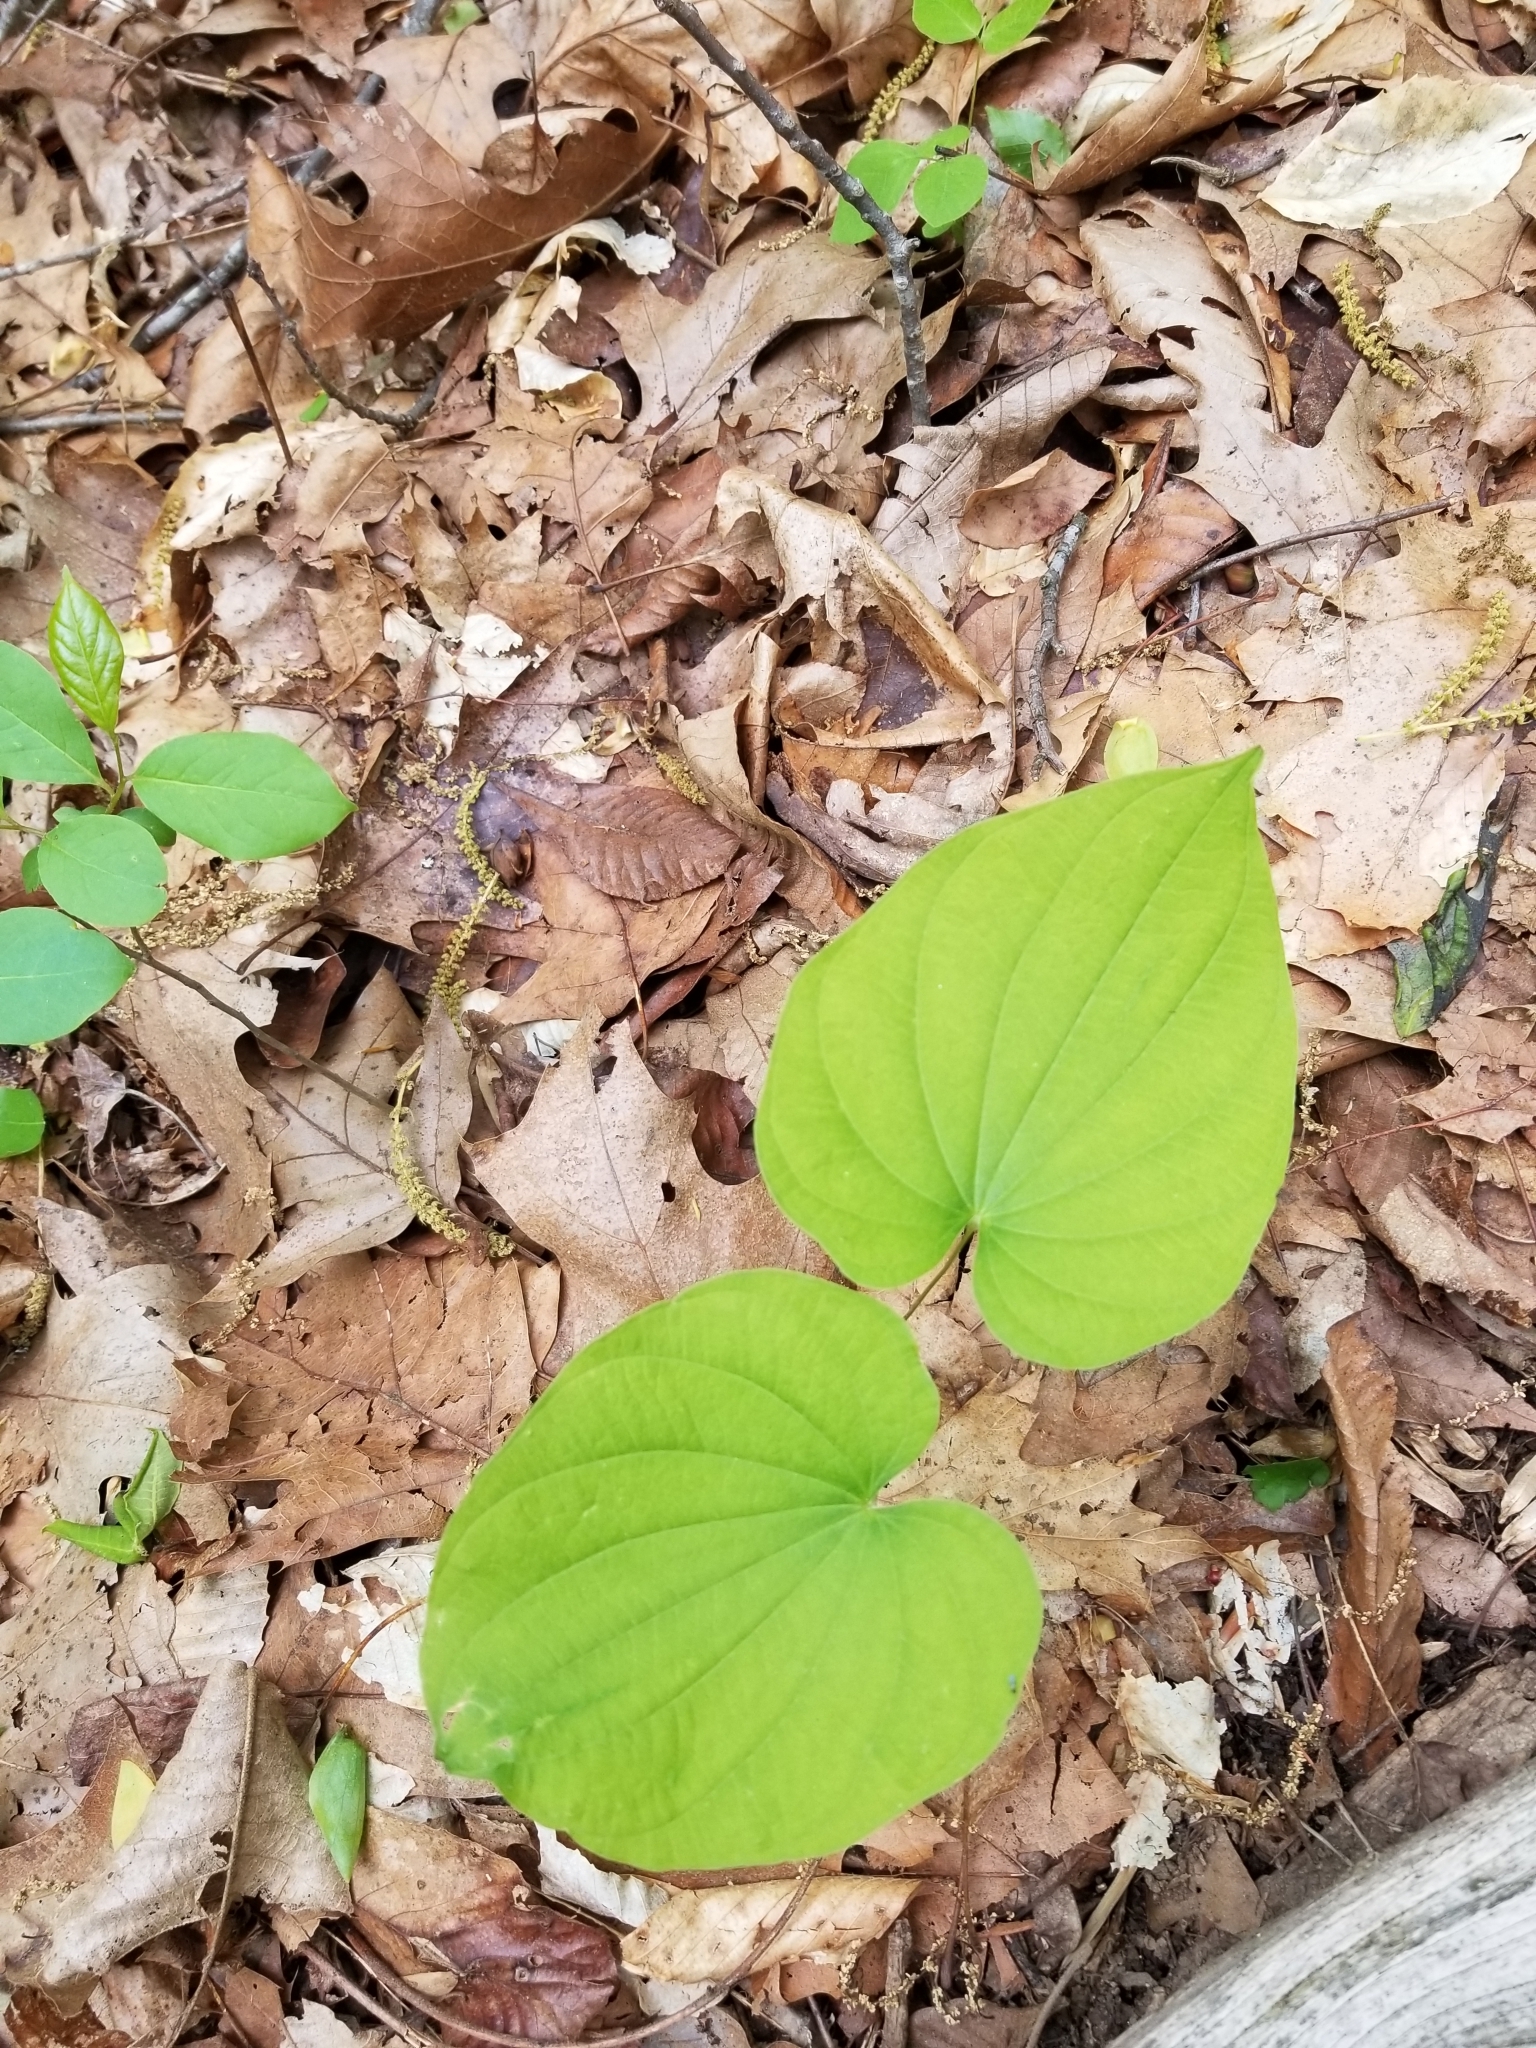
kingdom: Plantae
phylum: Tracheophyta
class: Liliopsida
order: Dioscoreales
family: Dioscoreaceae
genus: Dioscorea
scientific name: Dioscorea villosa
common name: Wild yam
